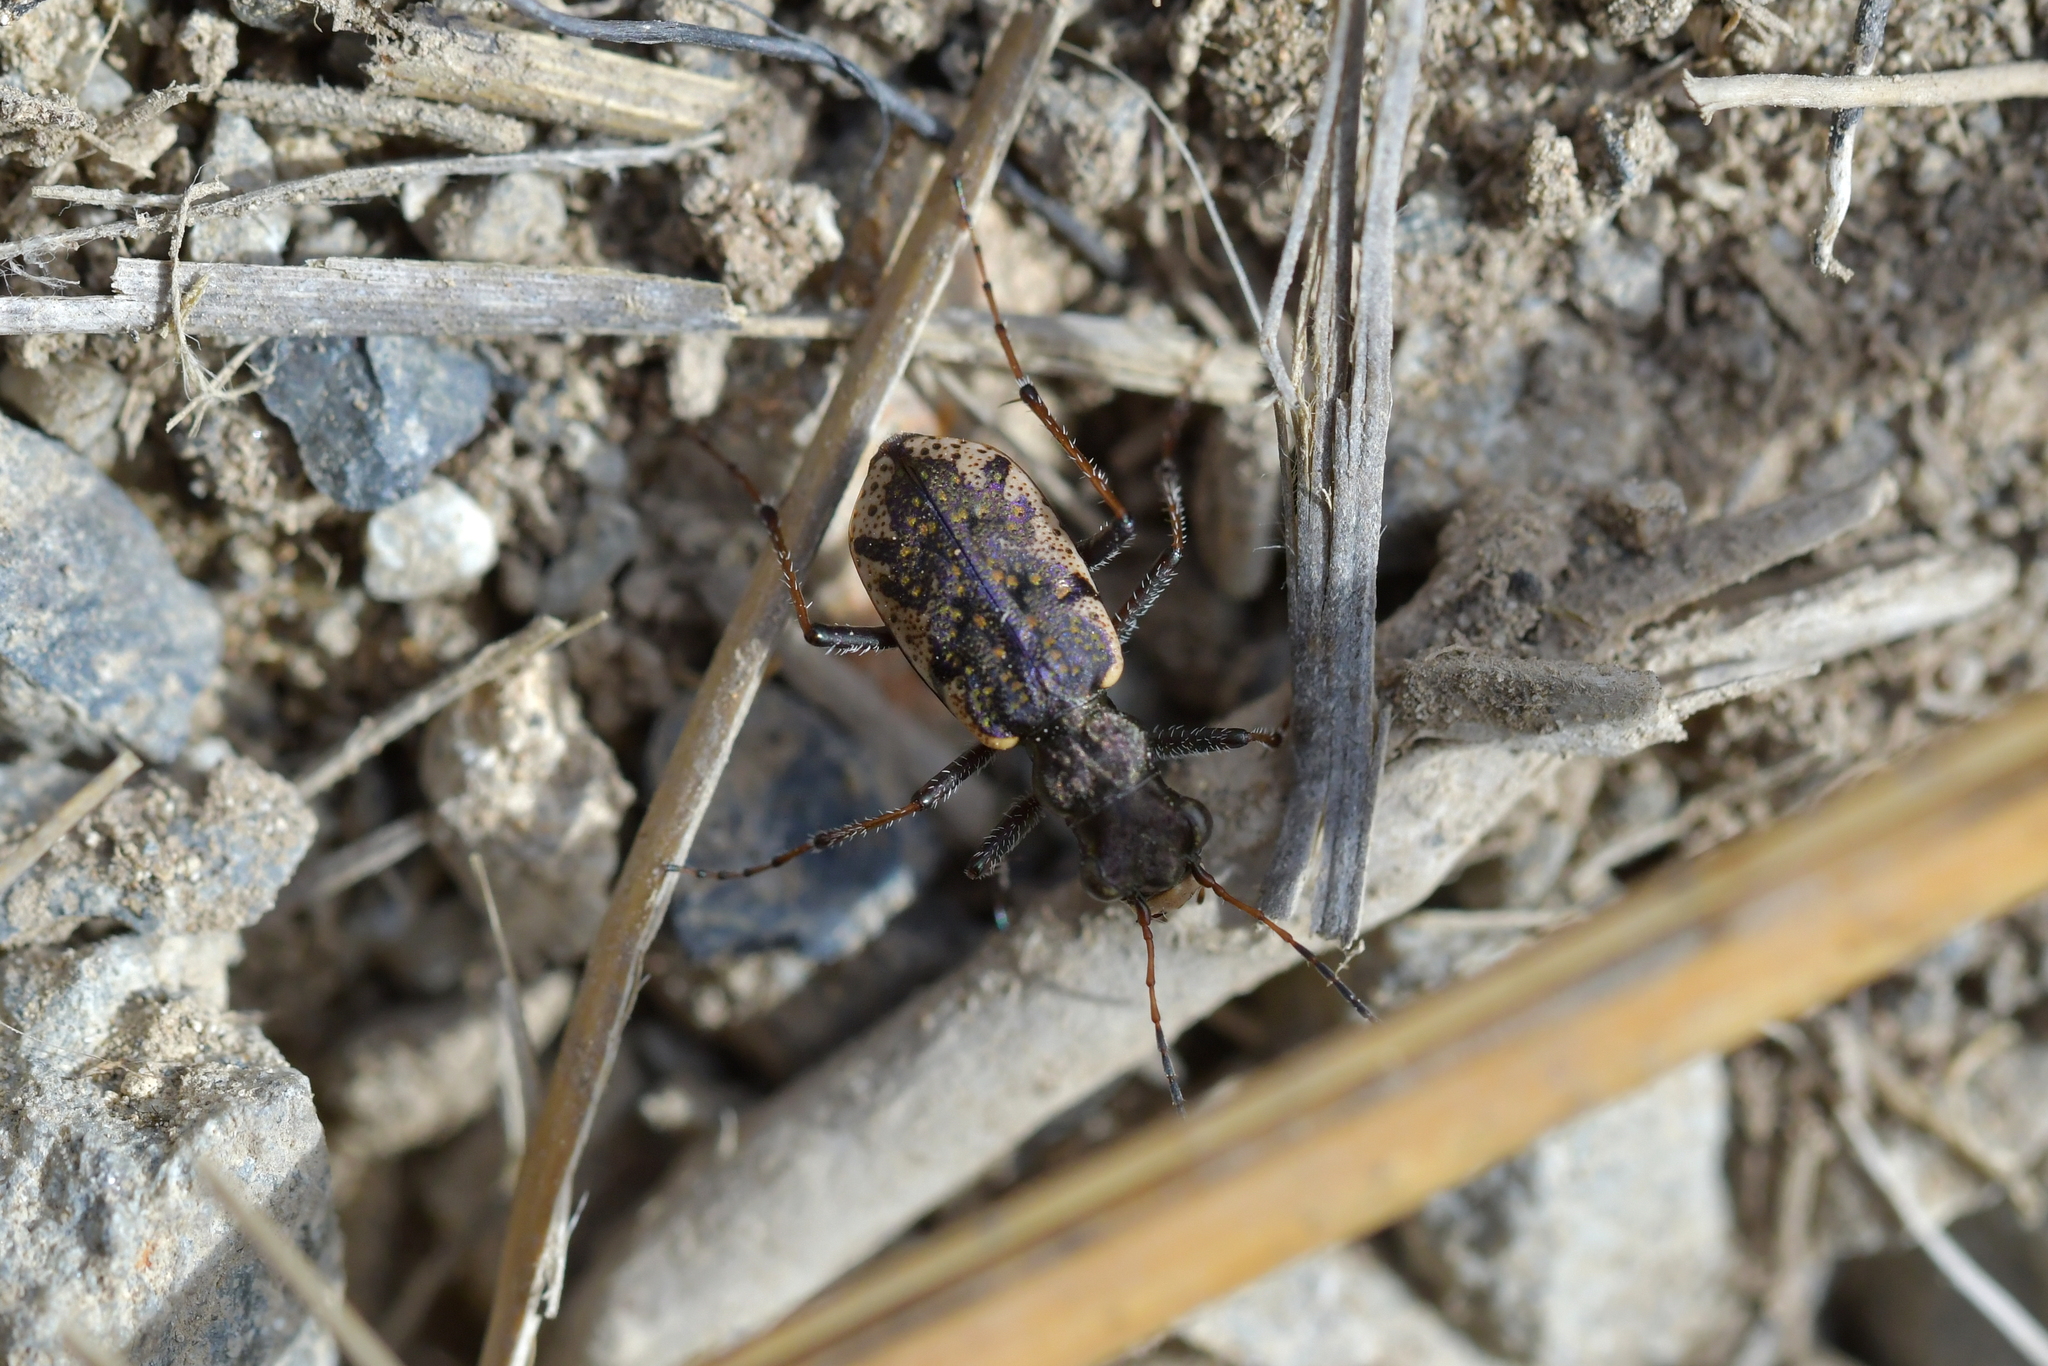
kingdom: Animalia
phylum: Arthropoda
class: Insecta
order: Coleoptera
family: Carabidae
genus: Neocicindela
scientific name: Neocicindela garnerae
